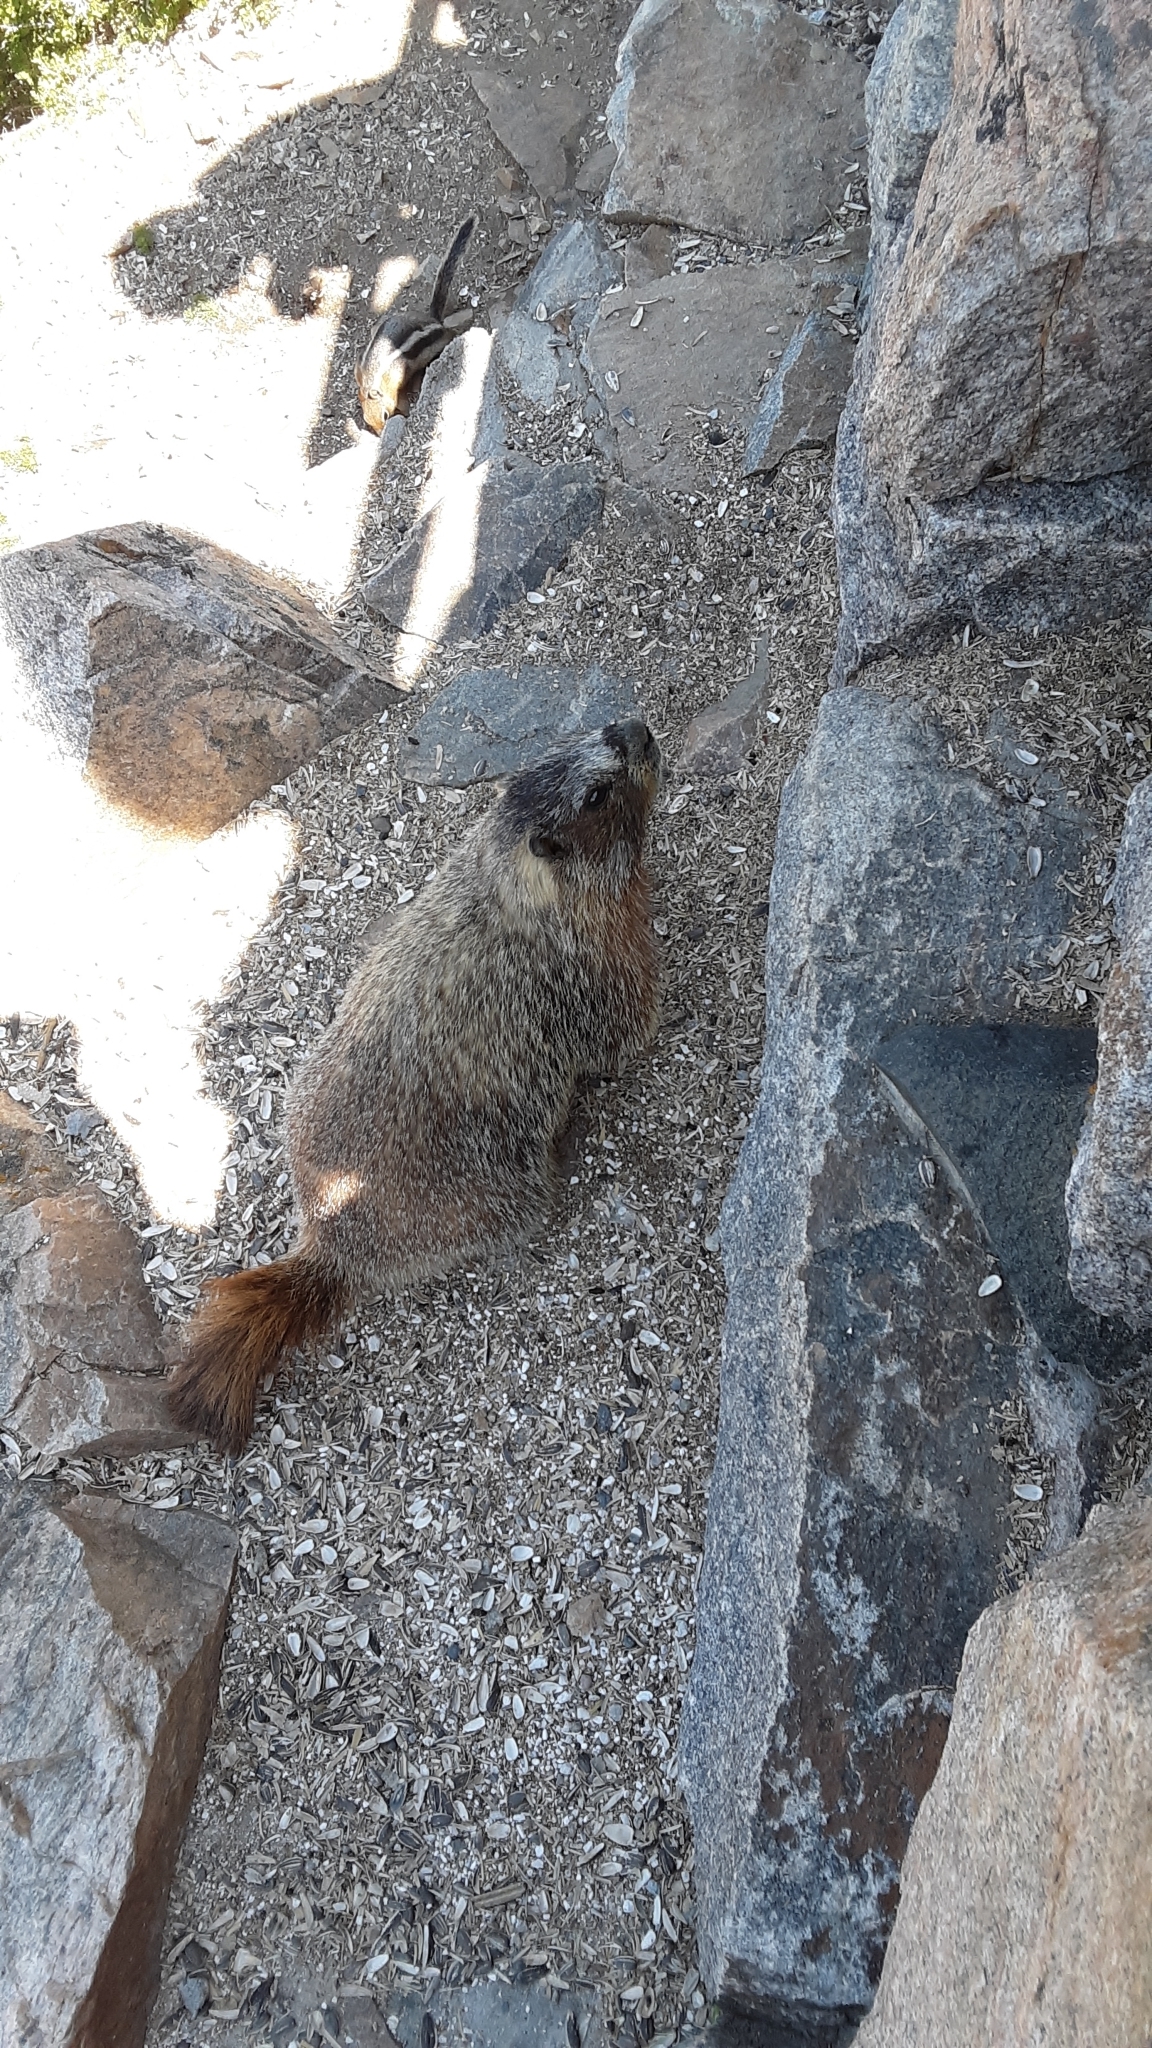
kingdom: Animalia
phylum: Chordata
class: Mammalia
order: Rodentia
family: Sciuridae
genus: Marmota
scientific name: Marmota flaviventris
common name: Yellow-bellied marmot
